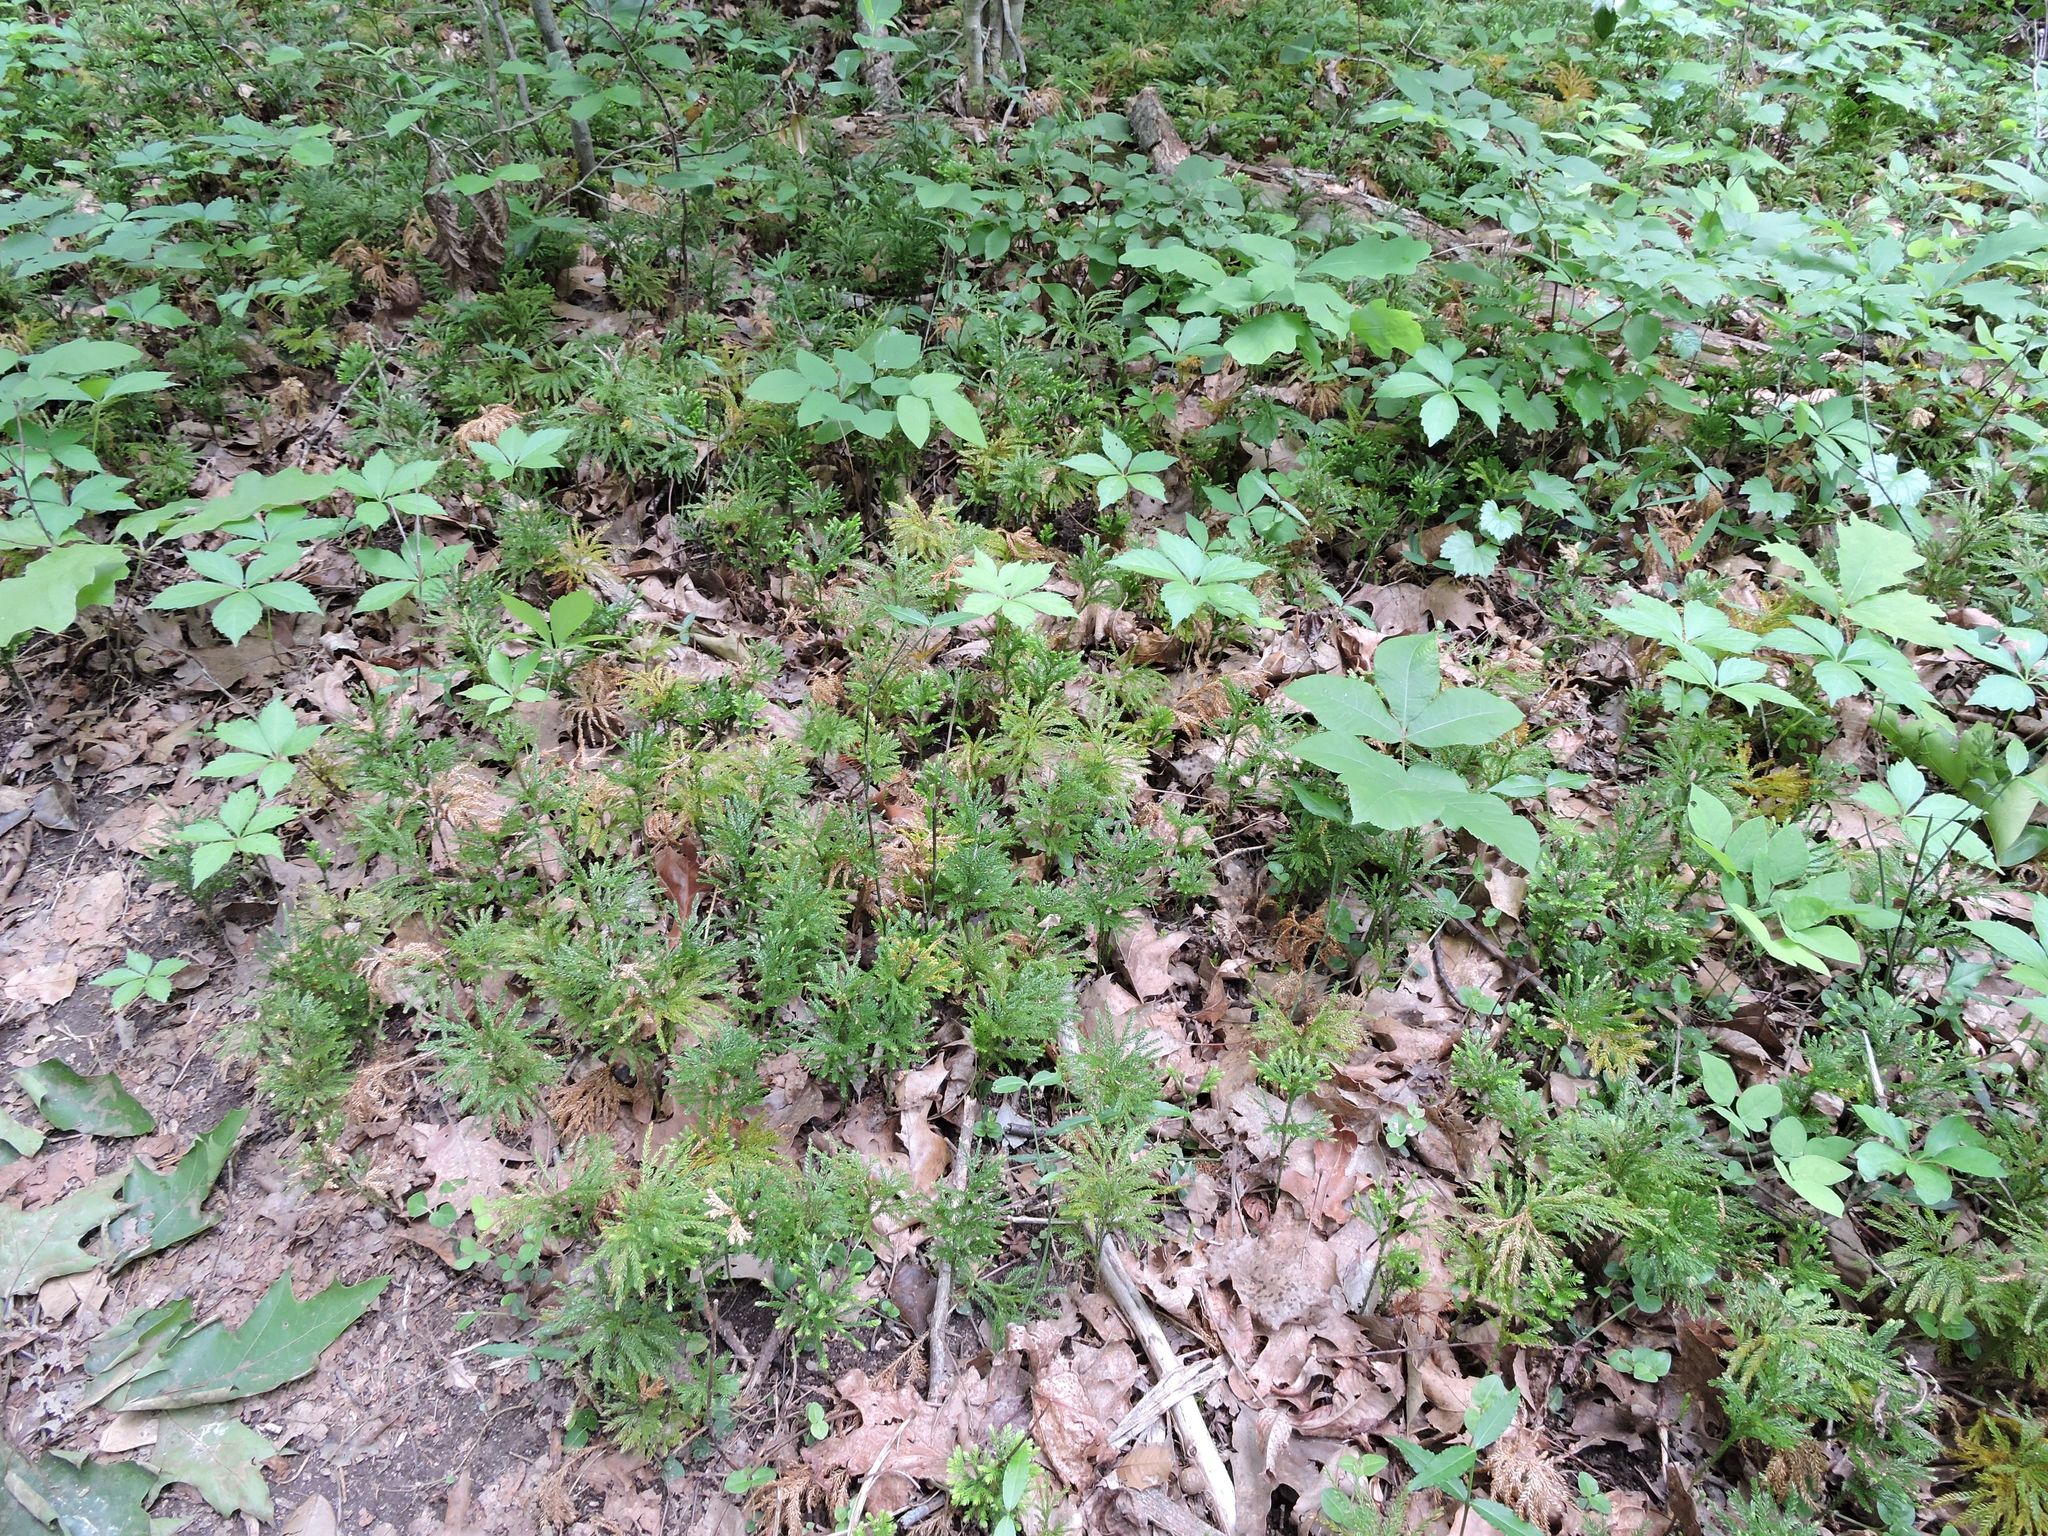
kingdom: Plantae
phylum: Tracheophyta
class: Lycopodiopsida
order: Lycopodiales
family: Lycopodiaceae
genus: Dendrolycopodium
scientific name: Dendrolycopodium obscurum
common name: Common ground-pine
